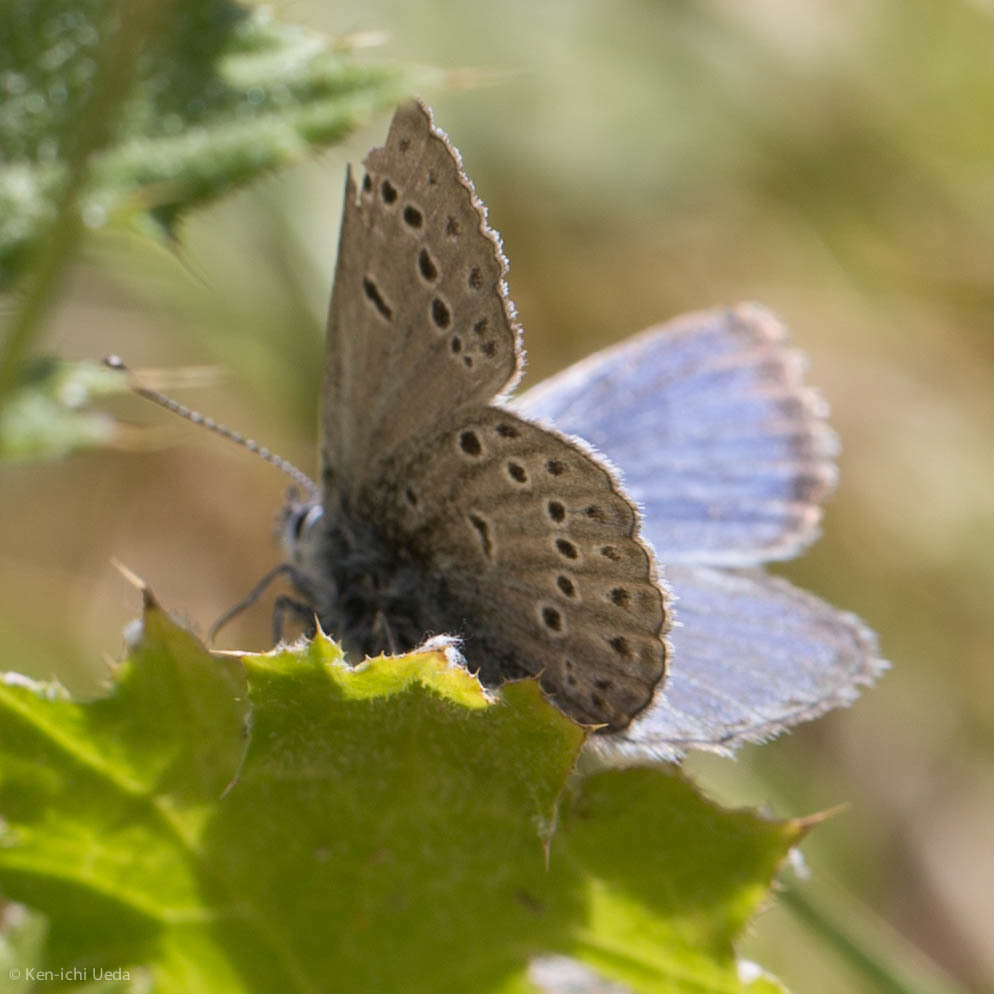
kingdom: Animalia
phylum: Arthropoda
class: Insecta
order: Lepidoptera
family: Lycaenidae
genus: Icaricia
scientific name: Icaricia icarioides
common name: Boisduval's blue
